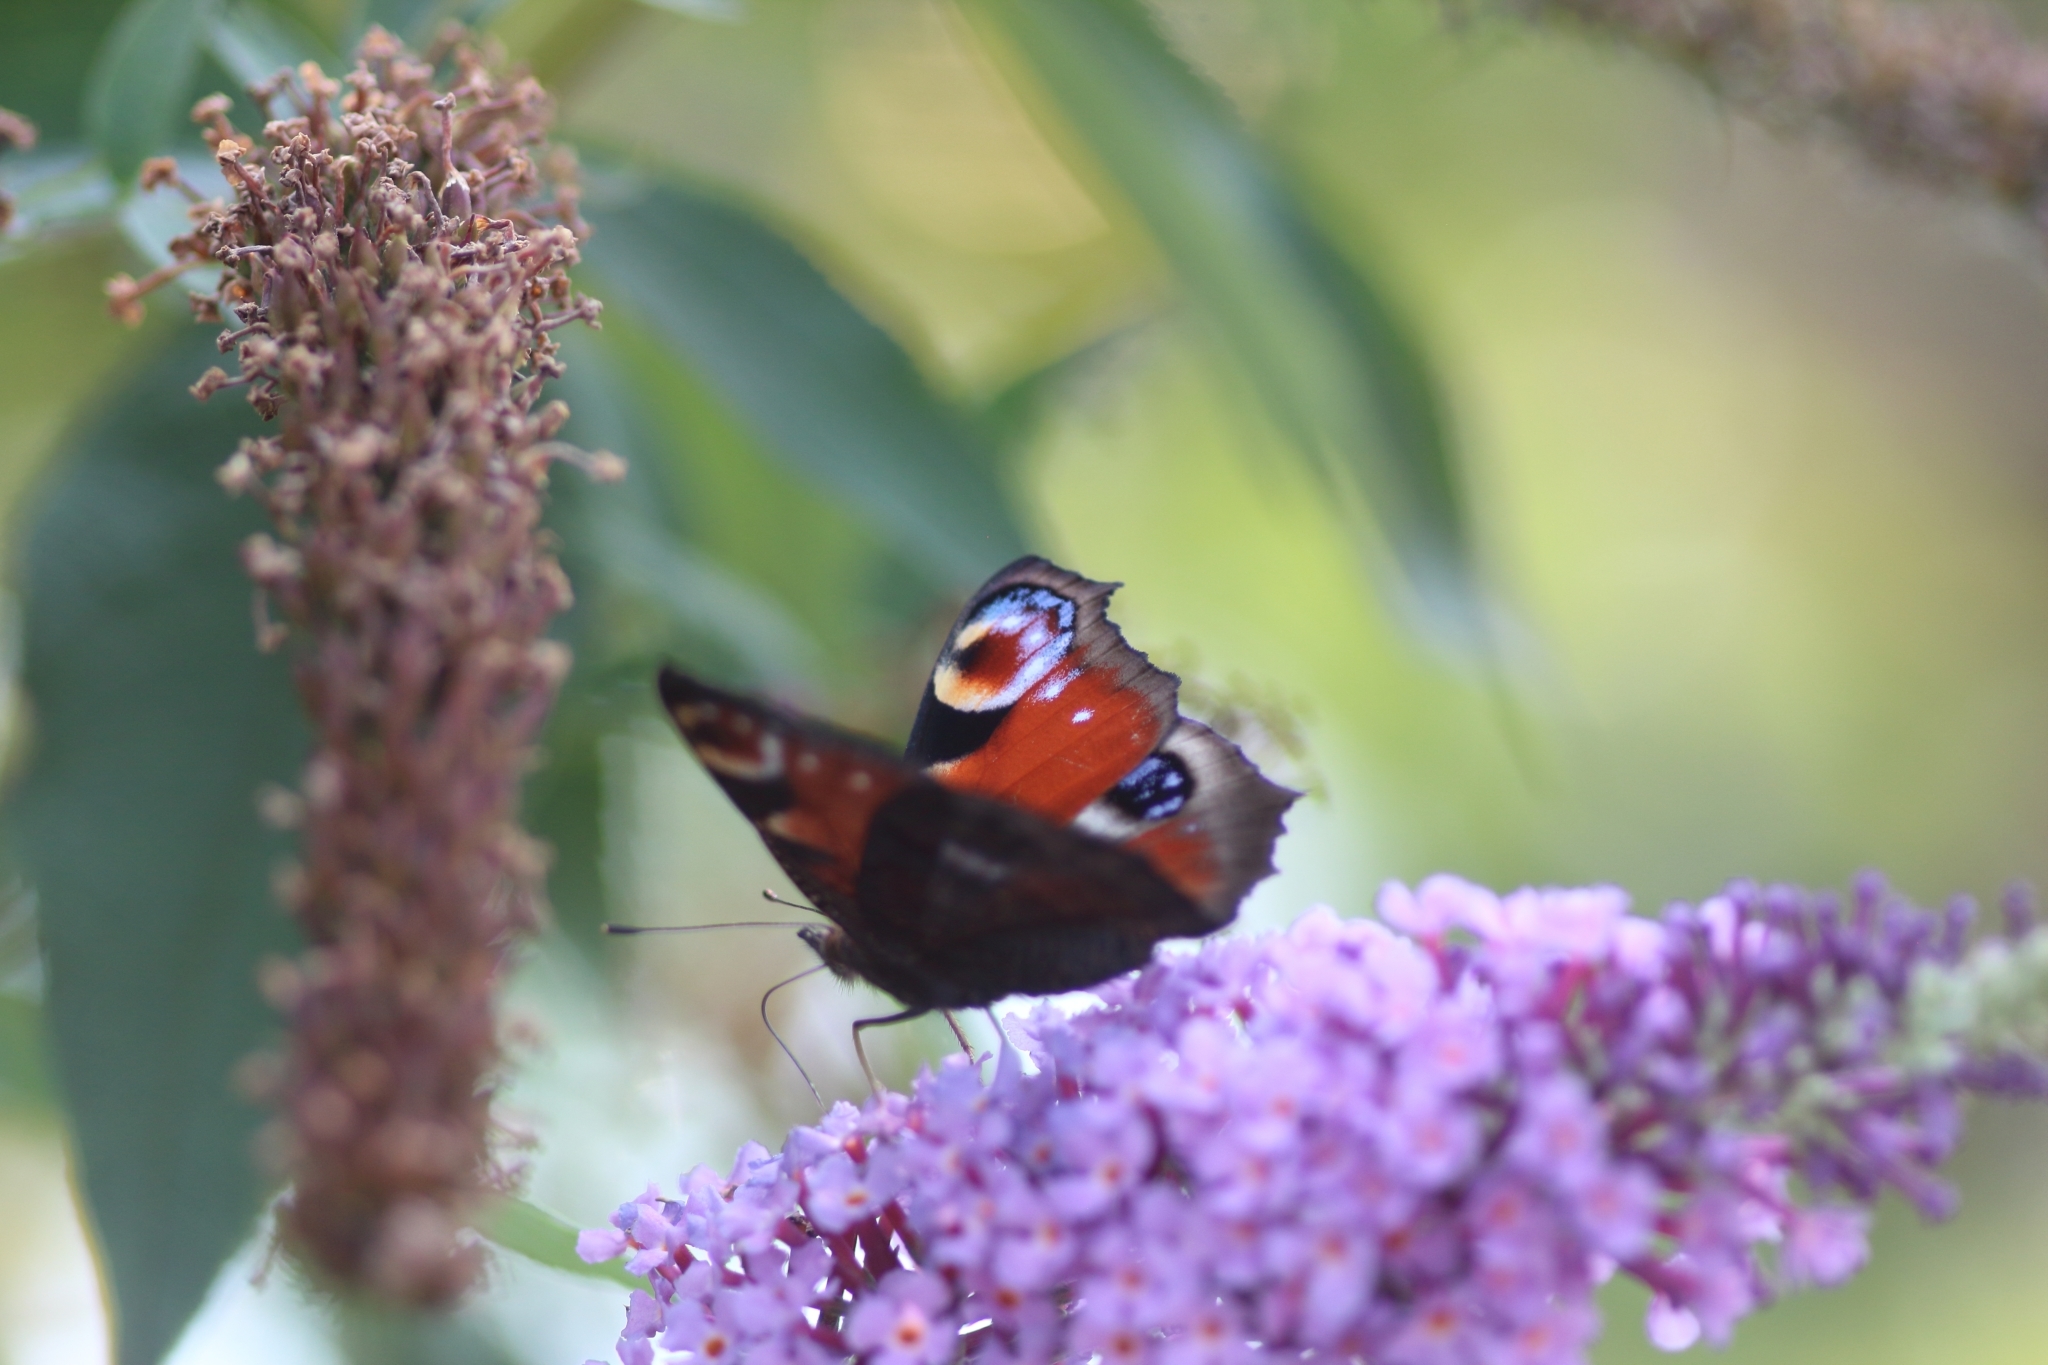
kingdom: Animalia
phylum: Arthropoda
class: Insecta
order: Lepidoptera
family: Nymphalidae
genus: Aglais
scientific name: Aglais io
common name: Peacock
